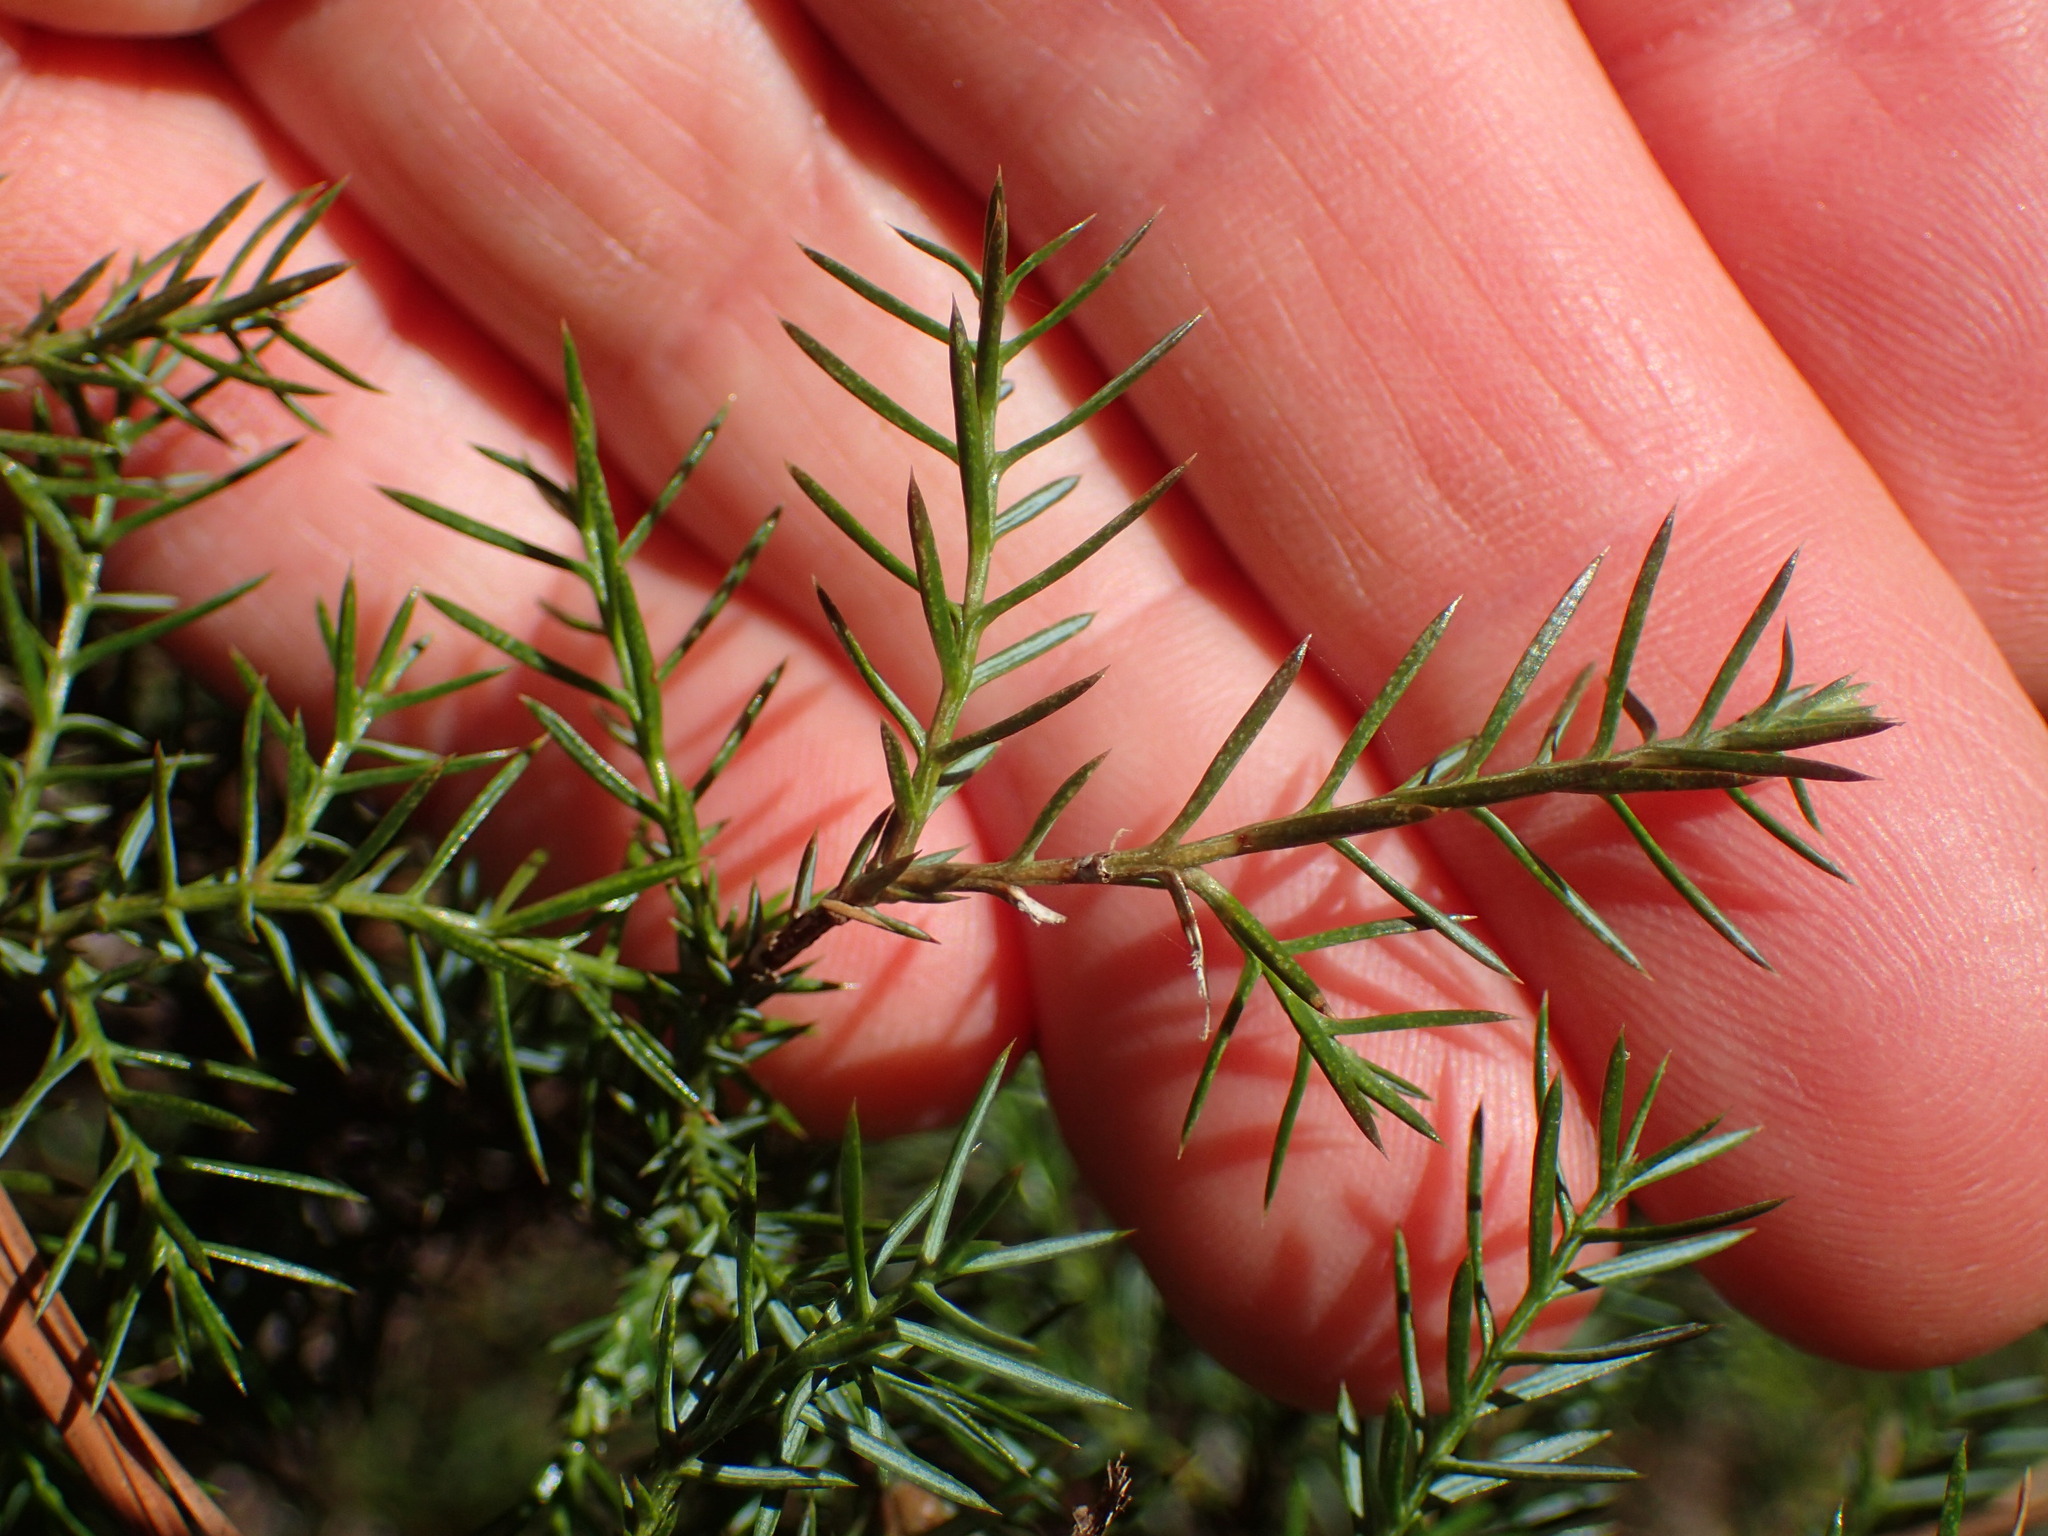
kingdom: Plantae
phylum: Tracheophyta
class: Pinopsida
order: Pinales
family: Cupressaceae
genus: Juniperus
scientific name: Juniperus virginiana
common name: Red juniper
